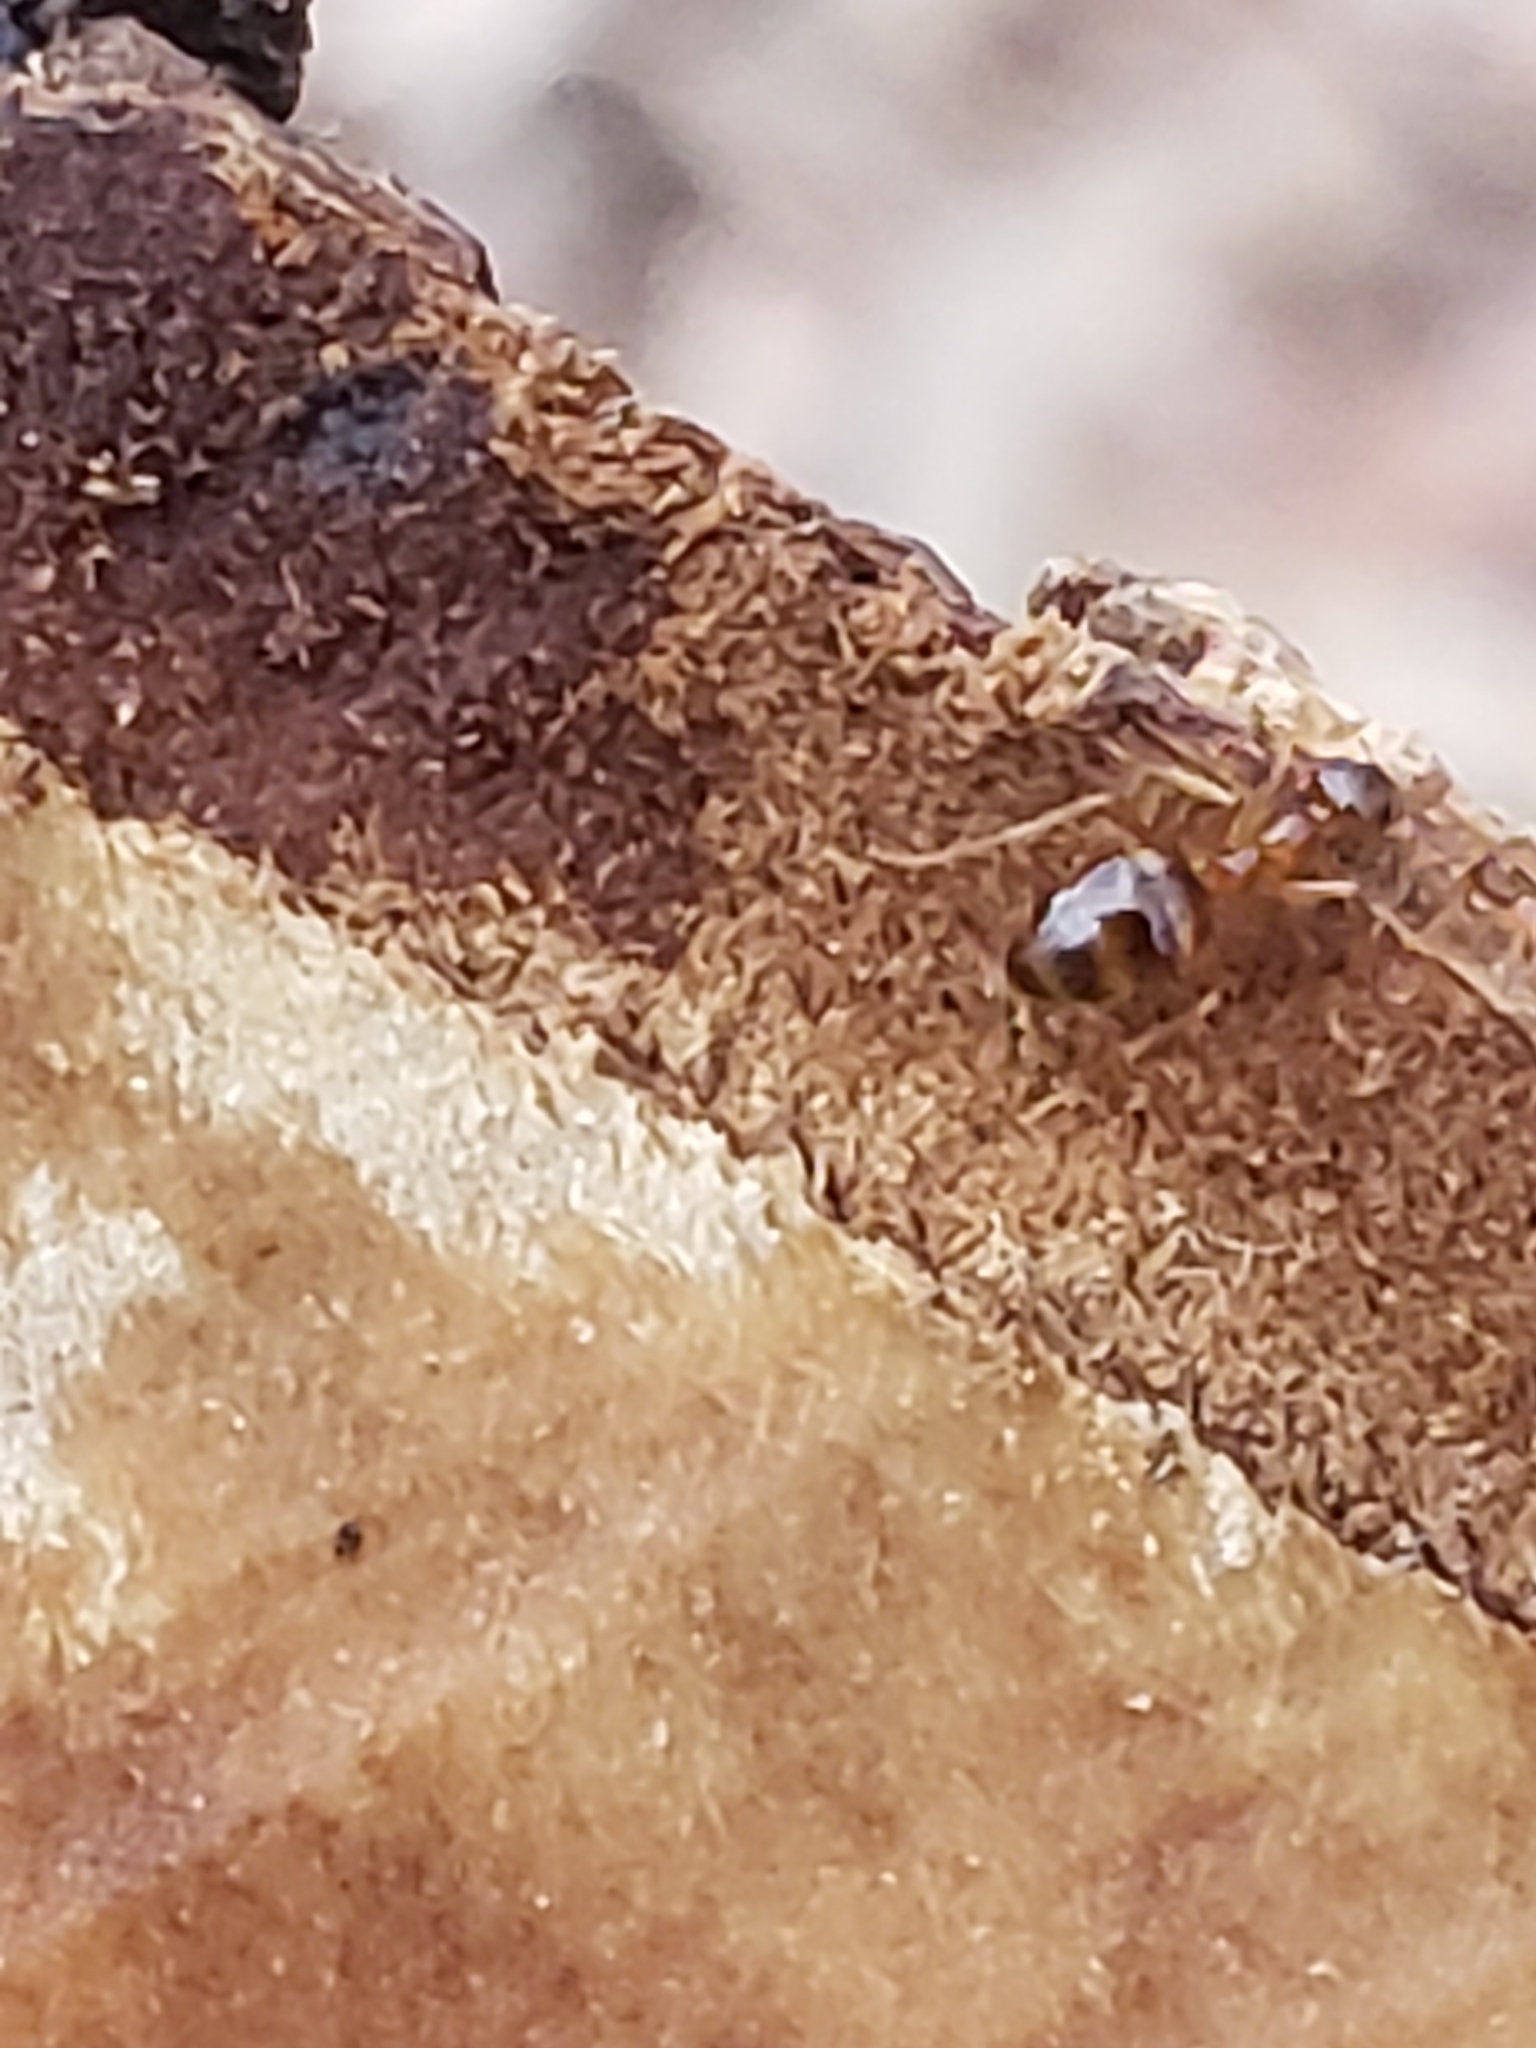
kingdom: Animalia
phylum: Arthropoda
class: Insecta
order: Hymenoptera
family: Formicidae
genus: Prenolepis
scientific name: Prenolepis imparis
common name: Small honey ant
